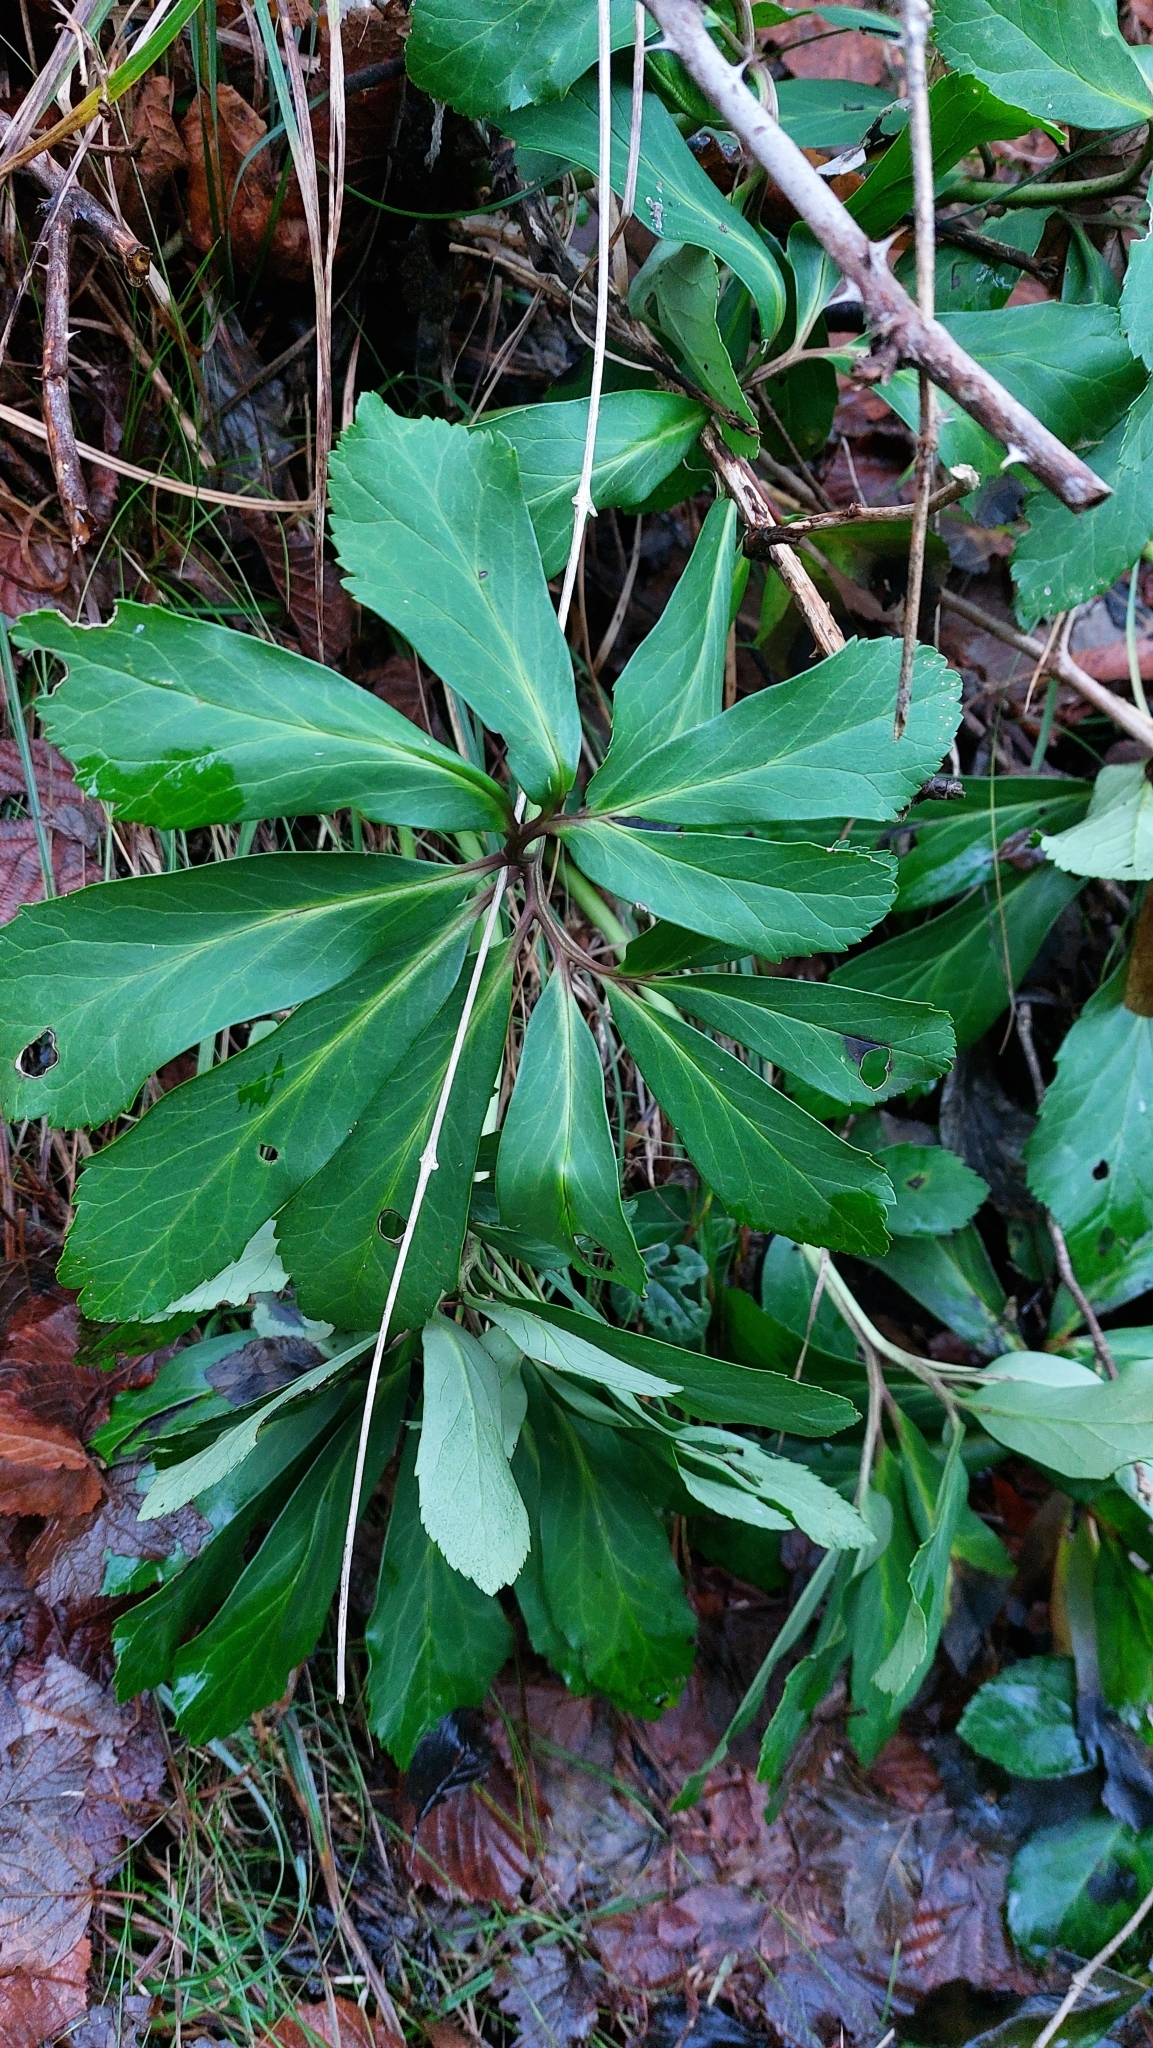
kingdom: Plantae
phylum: Tracheophyta
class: Magnoliopsida
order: Ranunculales
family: Ranunculaceae
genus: Helleborus
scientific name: Helleborus niger
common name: Black hellebore
